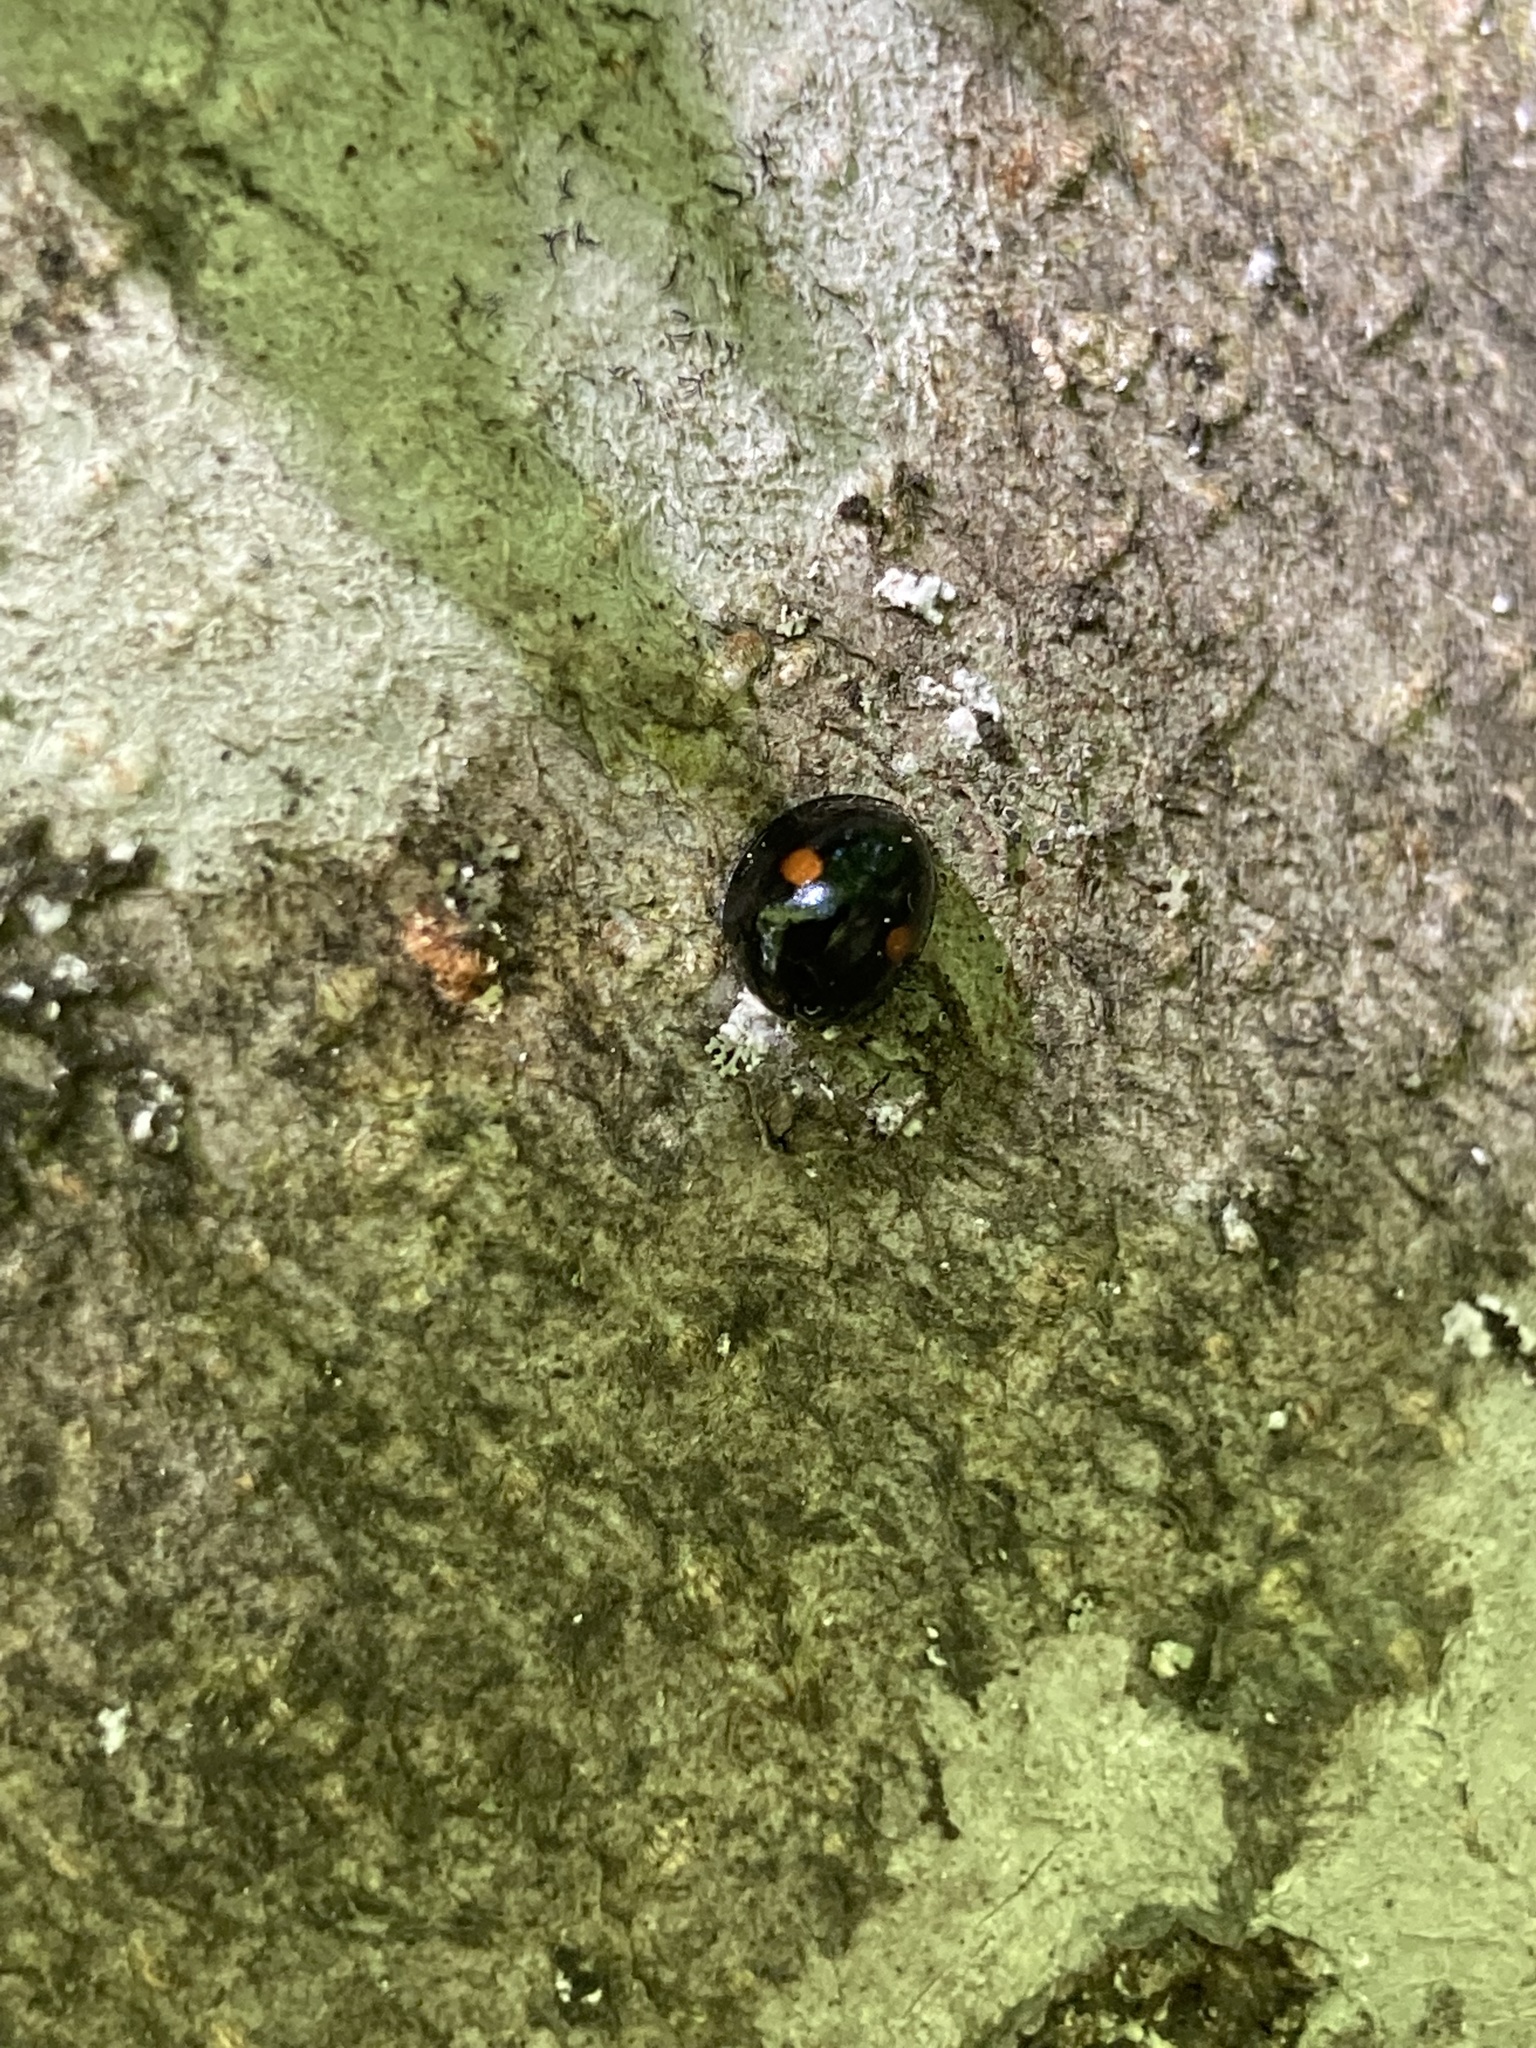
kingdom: Animalia
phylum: Arthropoda
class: Insecta
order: Coleoptera
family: Coccinellidae
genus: Chilocorus
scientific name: Chilocorus stigma
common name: Twicestabbed lady beetle
